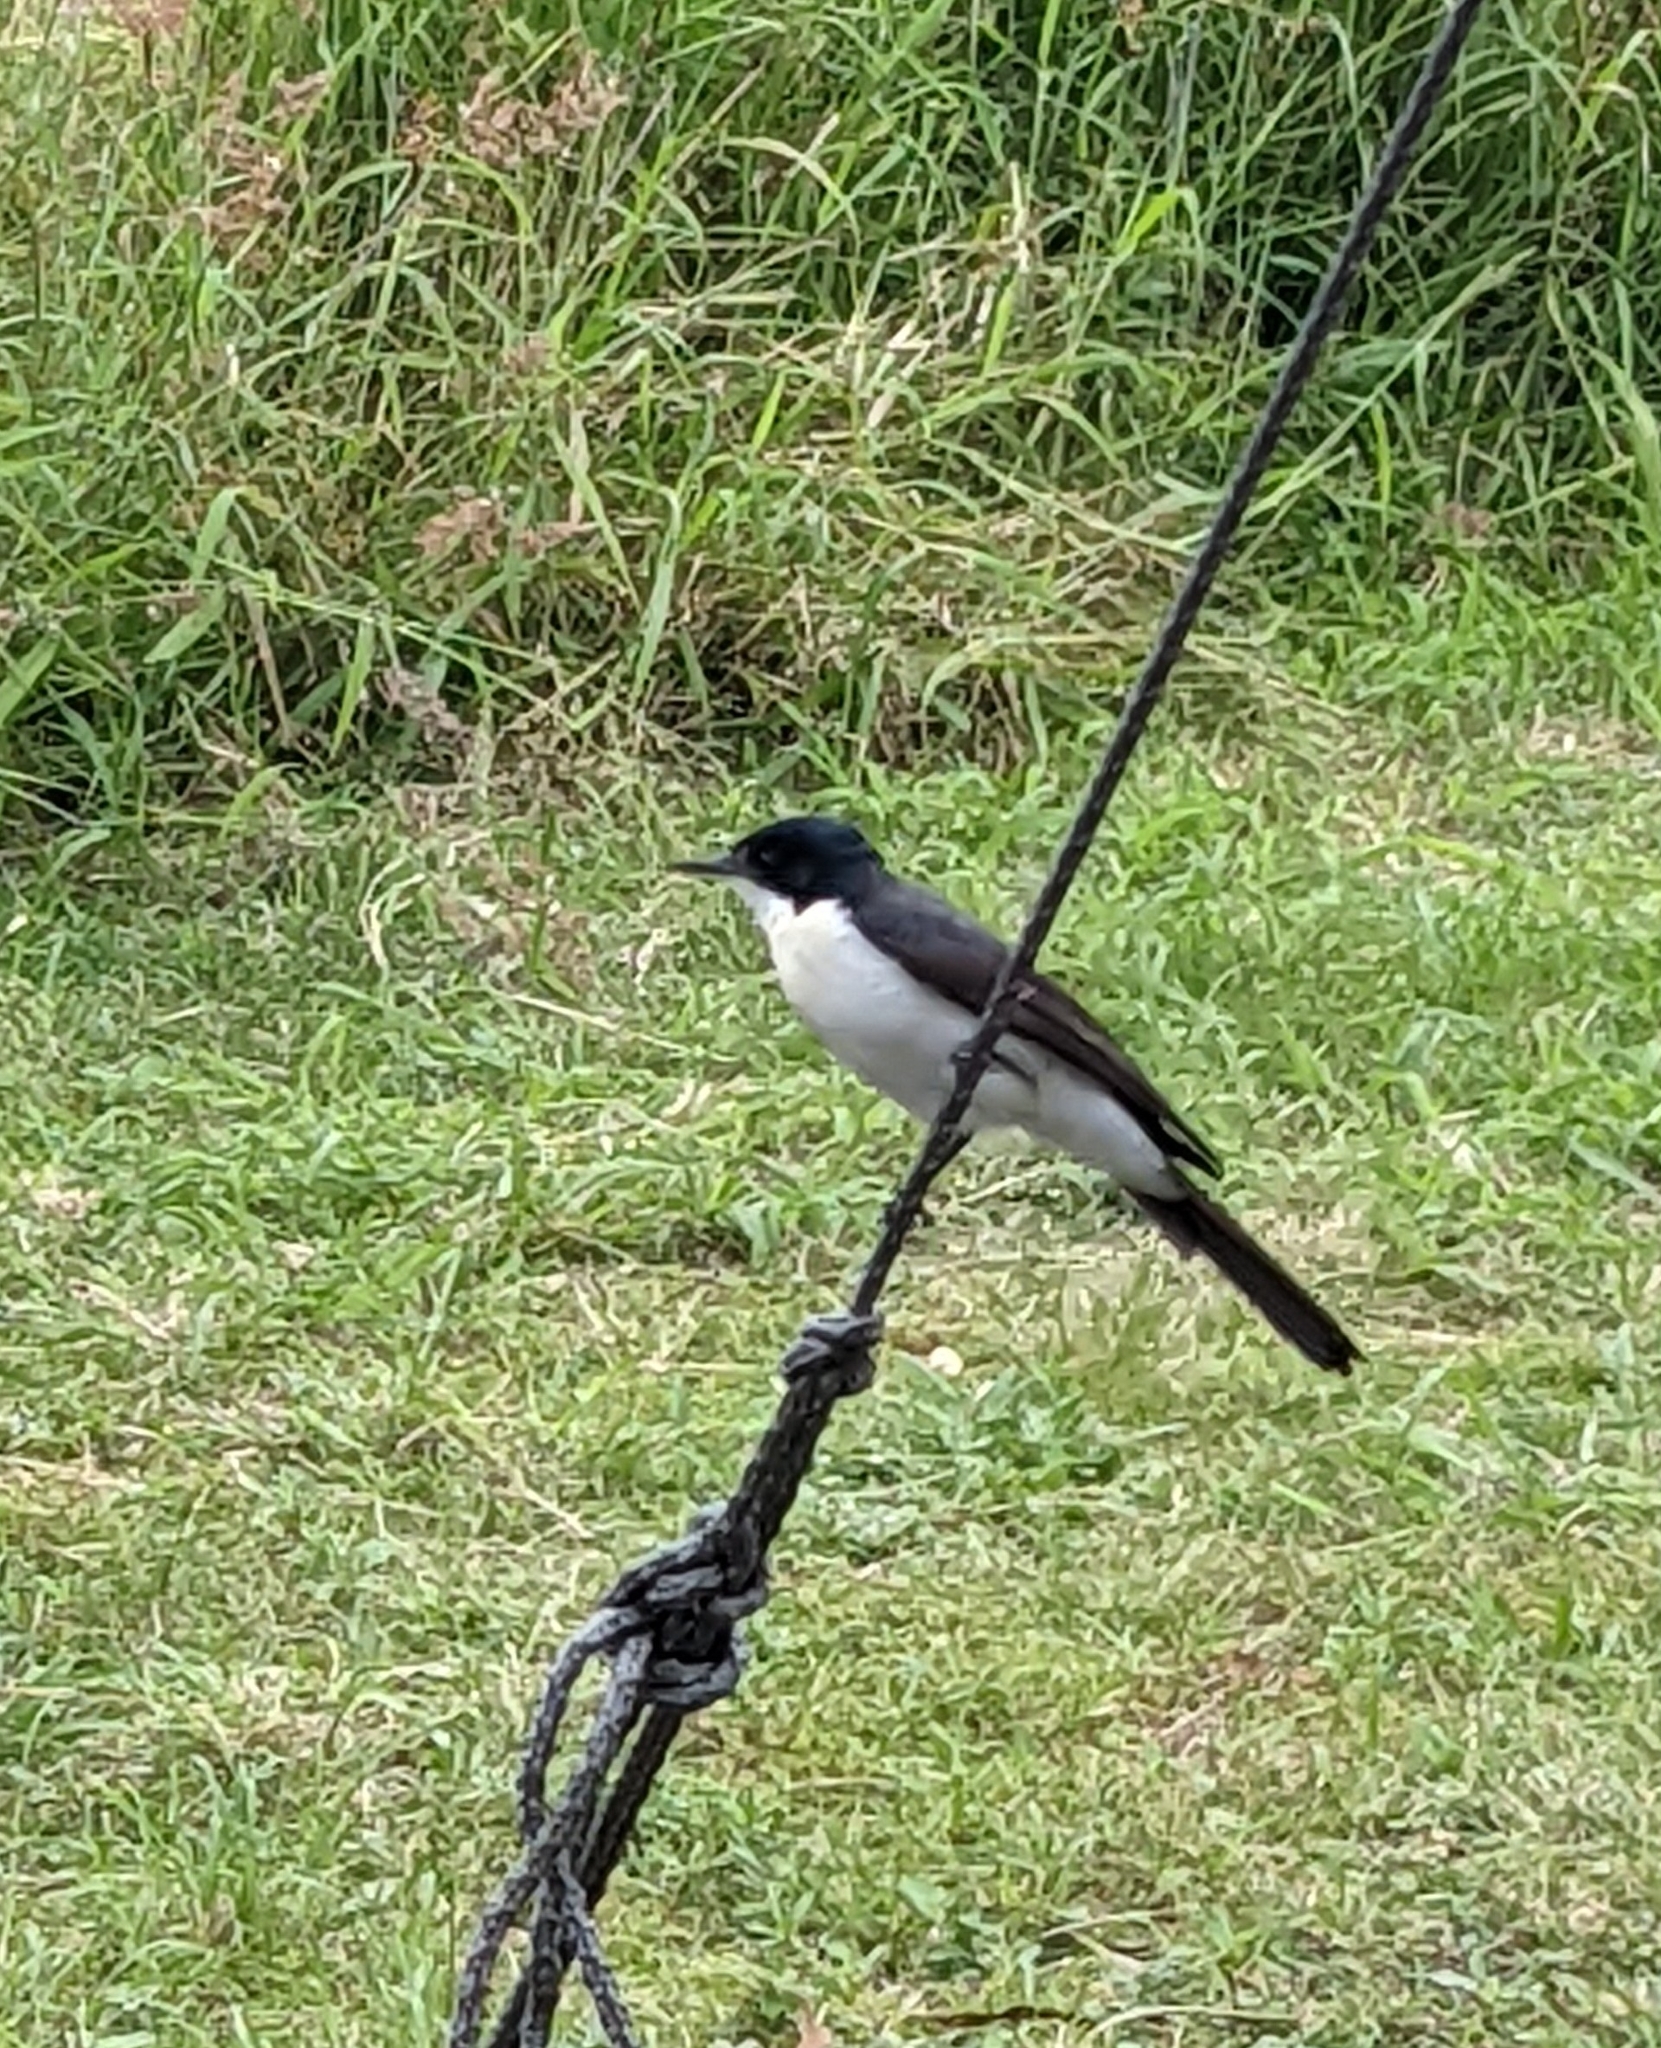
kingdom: Animalia
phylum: Chordata
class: Aves
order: Passeriformes
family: Monarchidae
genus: Myiagra
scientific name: Myiagra inquieta
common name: Restless flycatcher
